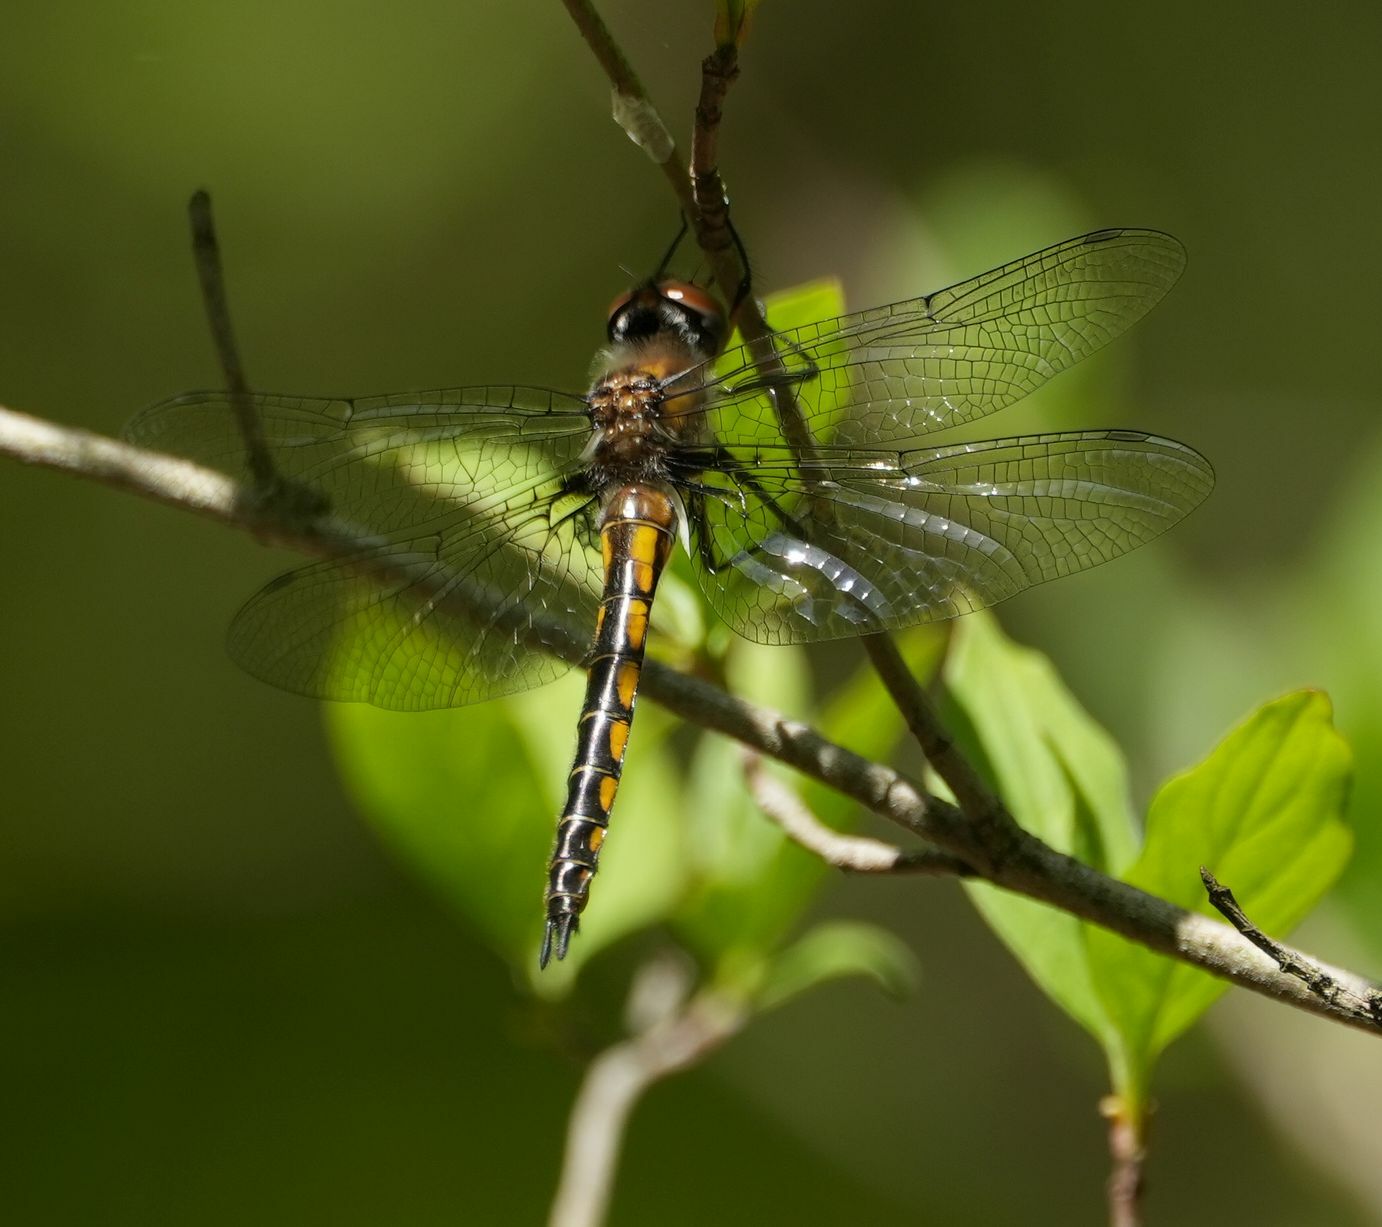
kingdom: Animalia
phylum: Arthropoda
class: Insecta
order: Odonata
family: Corduliidae
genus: Epitheca
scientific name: Epitheca spinigera
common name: Spiny baskettail
